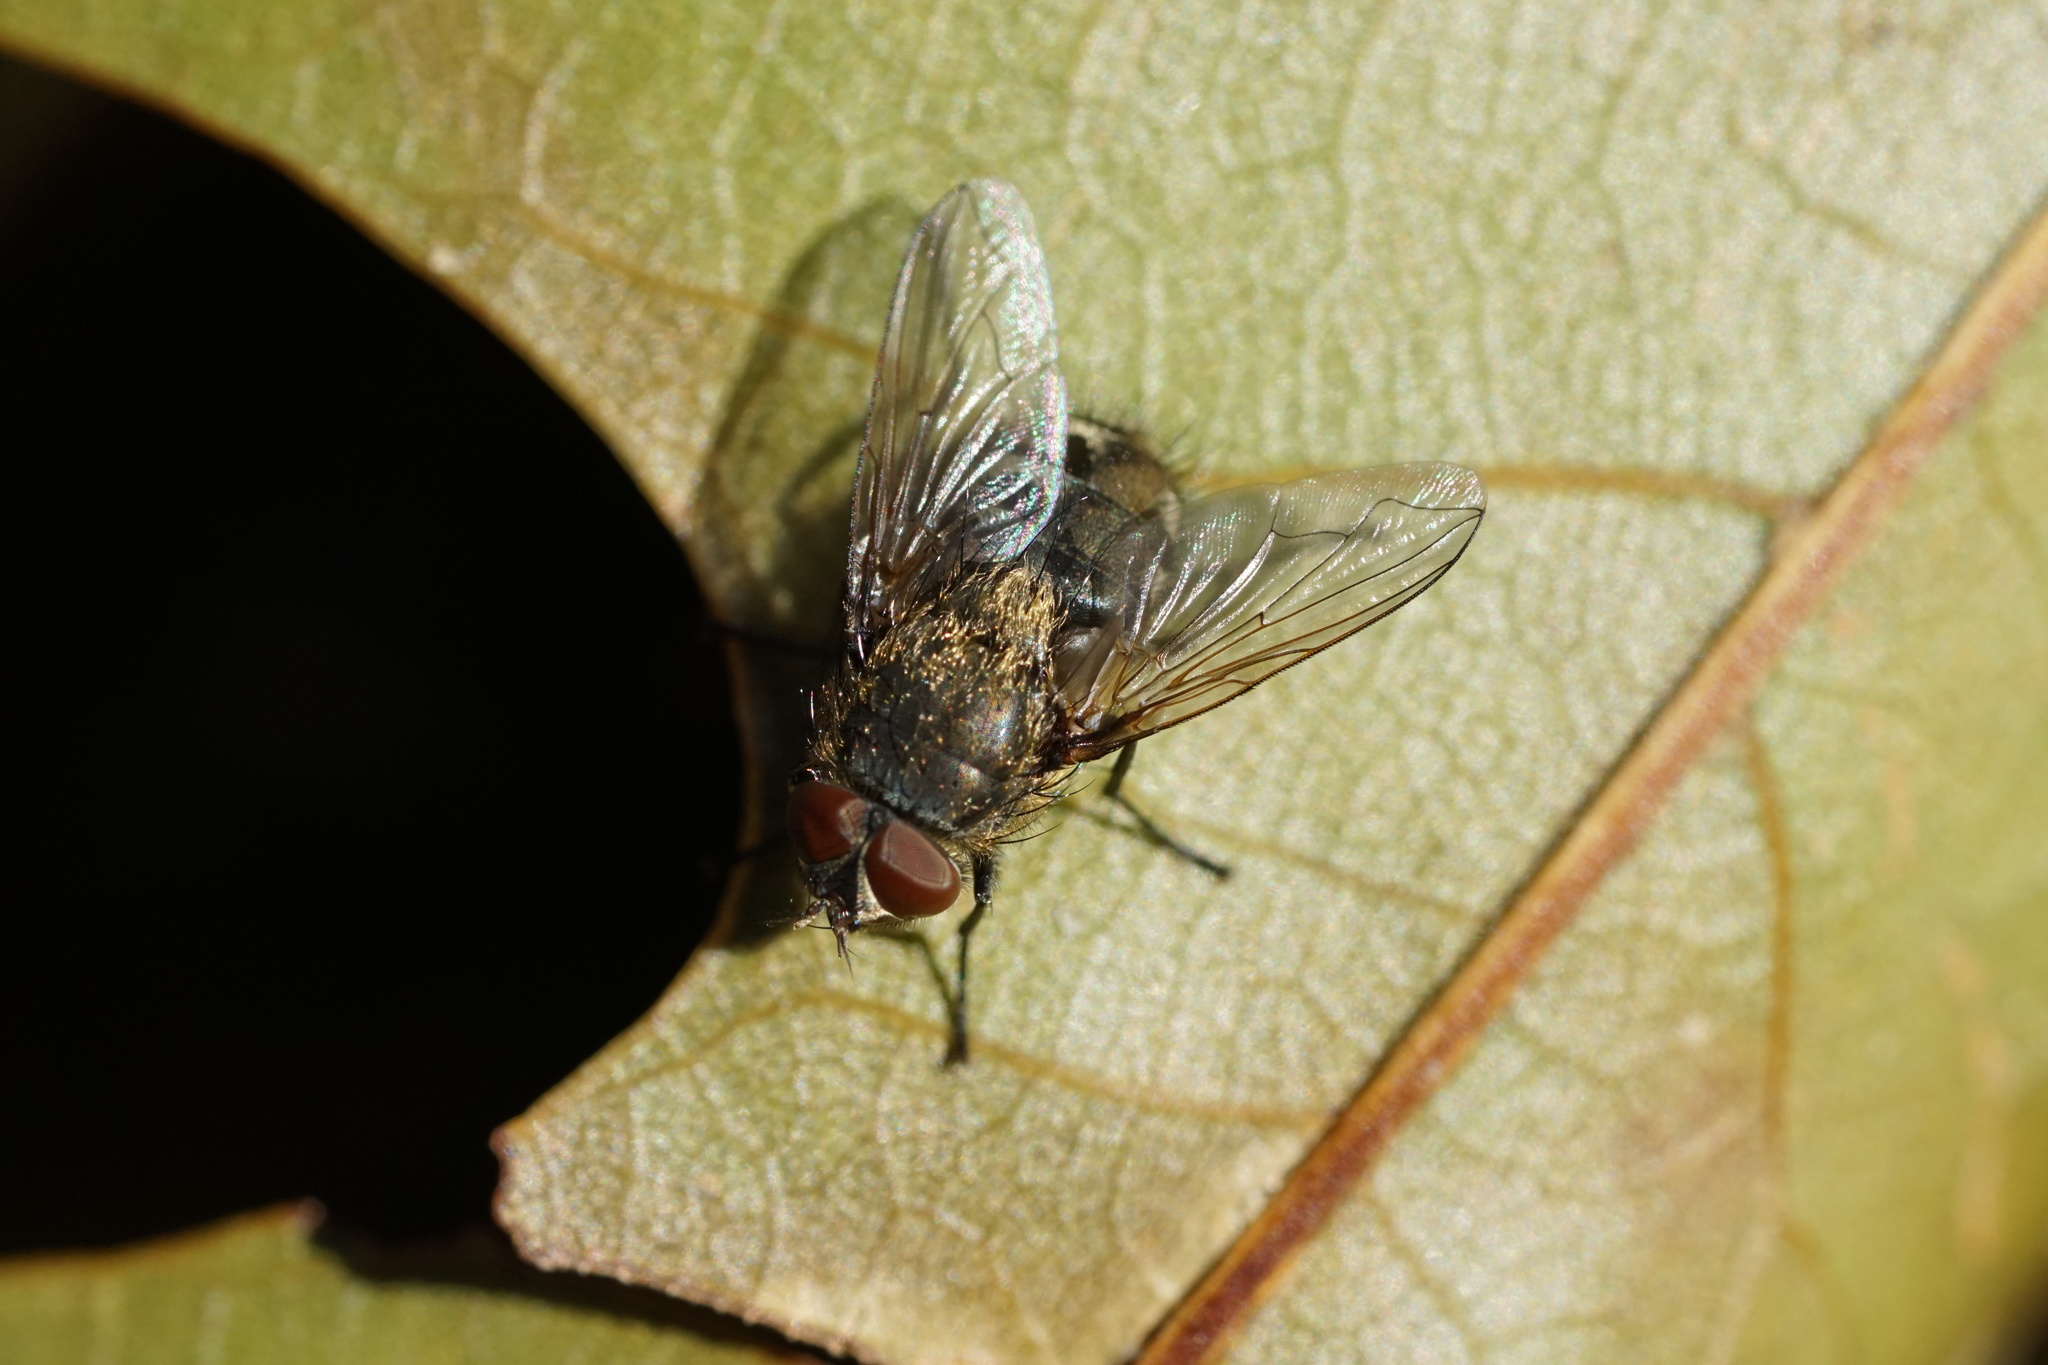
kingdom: Animalia
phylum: Arthropoda
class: Insecta
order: Diptera
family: Polleniidae
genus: Pollenia
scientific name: Pollenia
